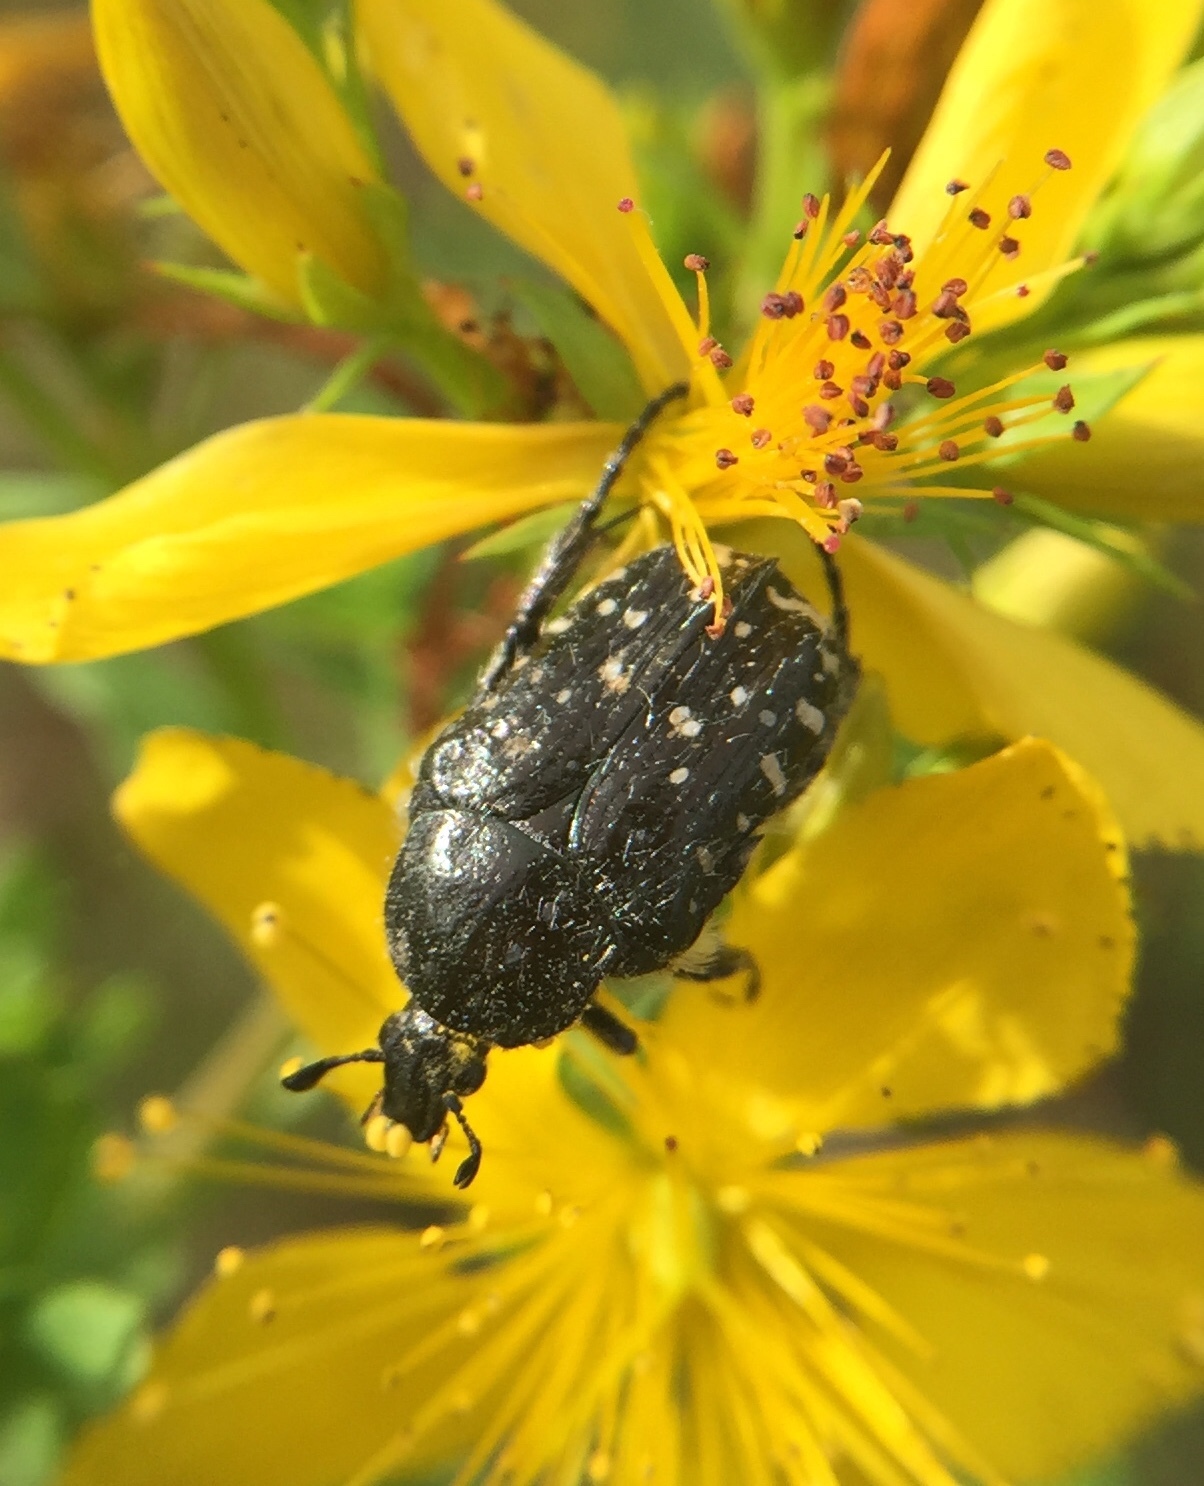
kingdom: Animalia
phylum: Arthropoda
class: Insecta
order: Coleoptera
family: Scarabaeidae
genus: Oxythyrea
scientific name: Oxythyrea funesta
